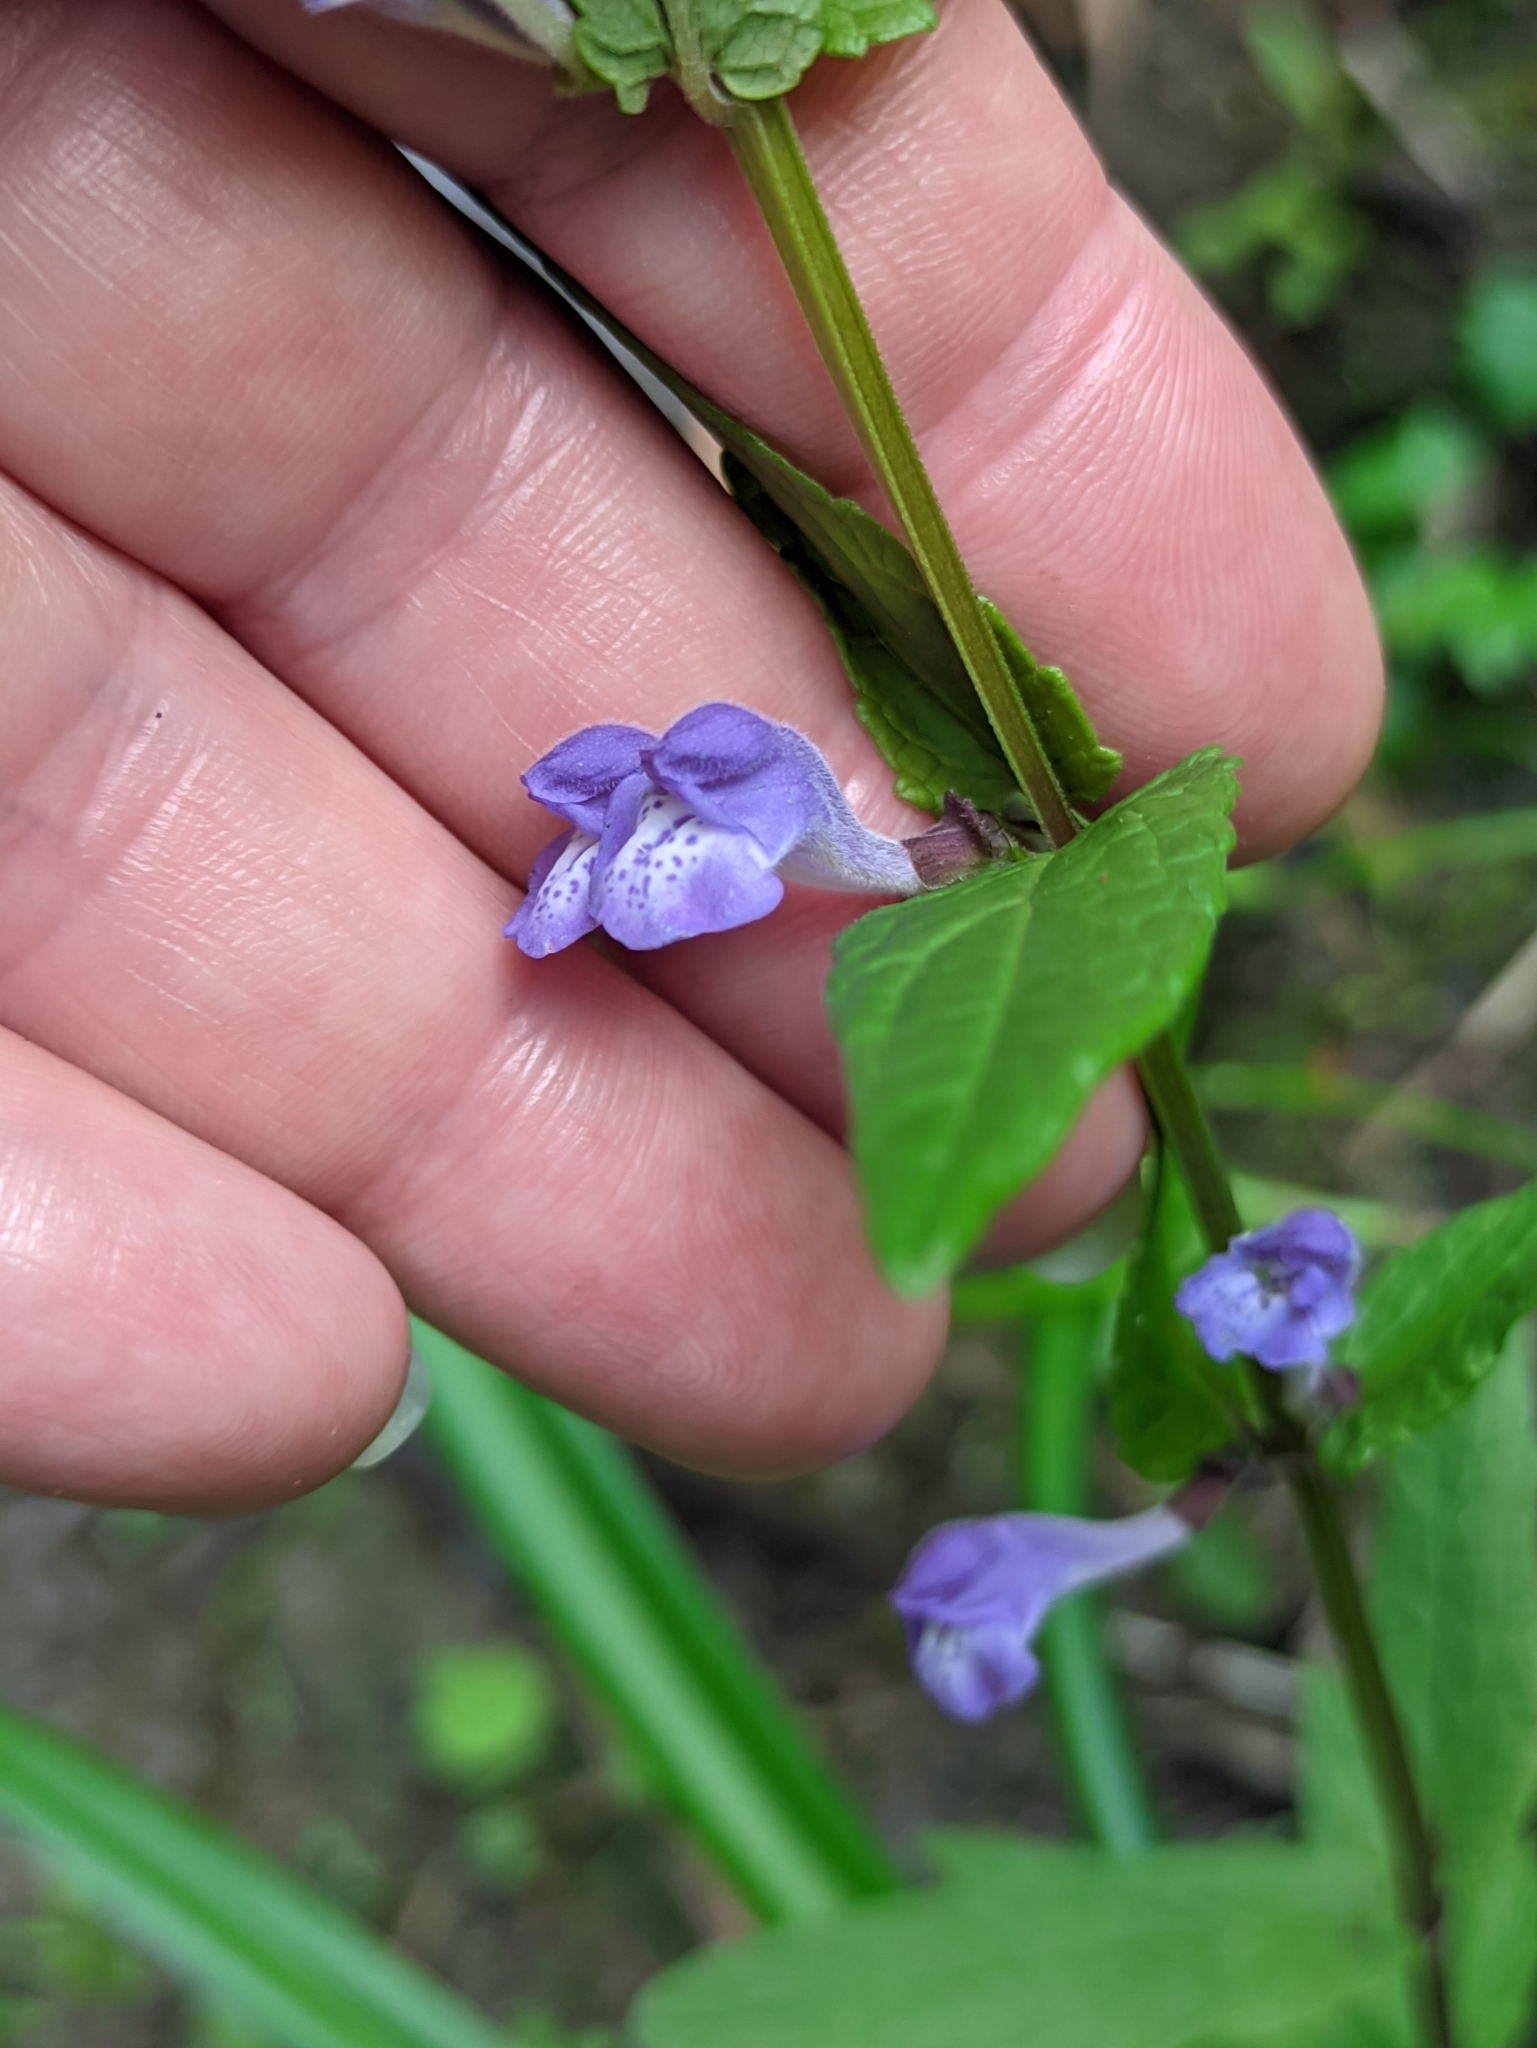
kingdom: Plantae
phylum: Tracheophyta
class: Magnoliopsida
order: Lamiales
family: Lamiaceae
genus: Scutellaria
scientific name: Scutellaria galericulata
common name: Skullcap
